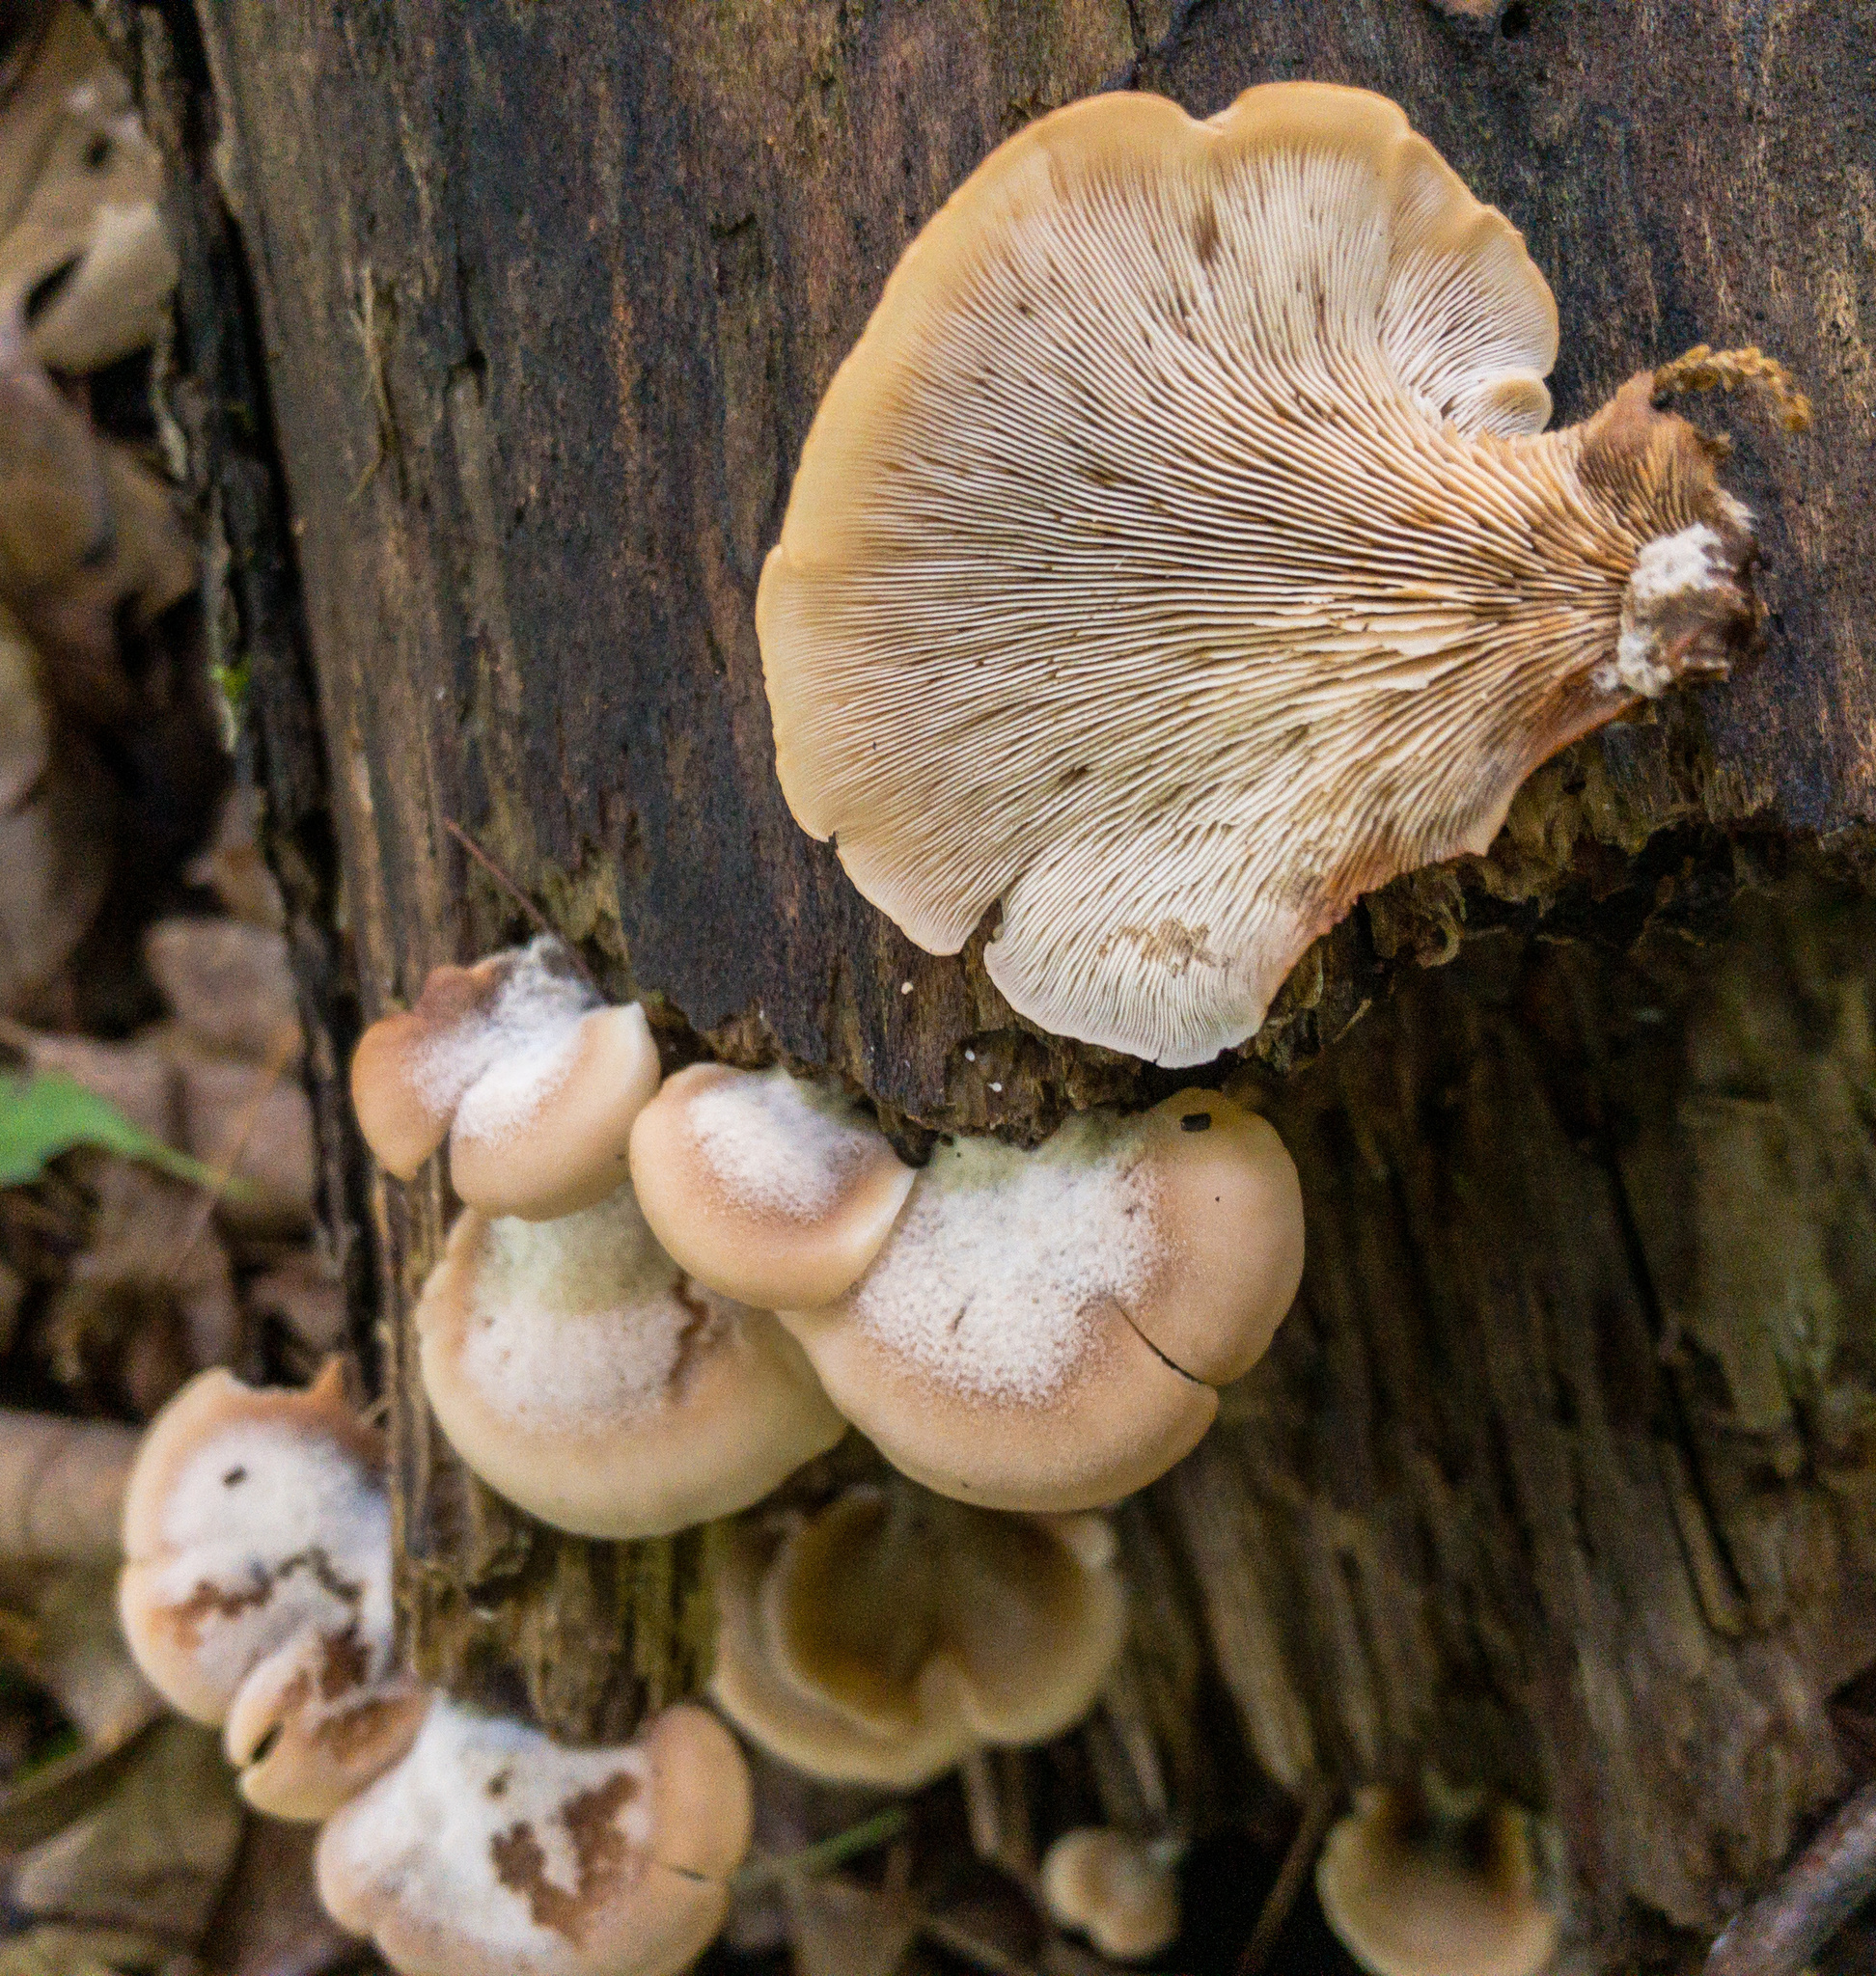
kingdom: Fungi
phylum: Basidiomycota
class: Agaricomycetes
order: Russulales
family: Auriscalpiaceae
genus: Lentinellus
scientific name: Lentinellus ursinus
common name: Bear lentinus
